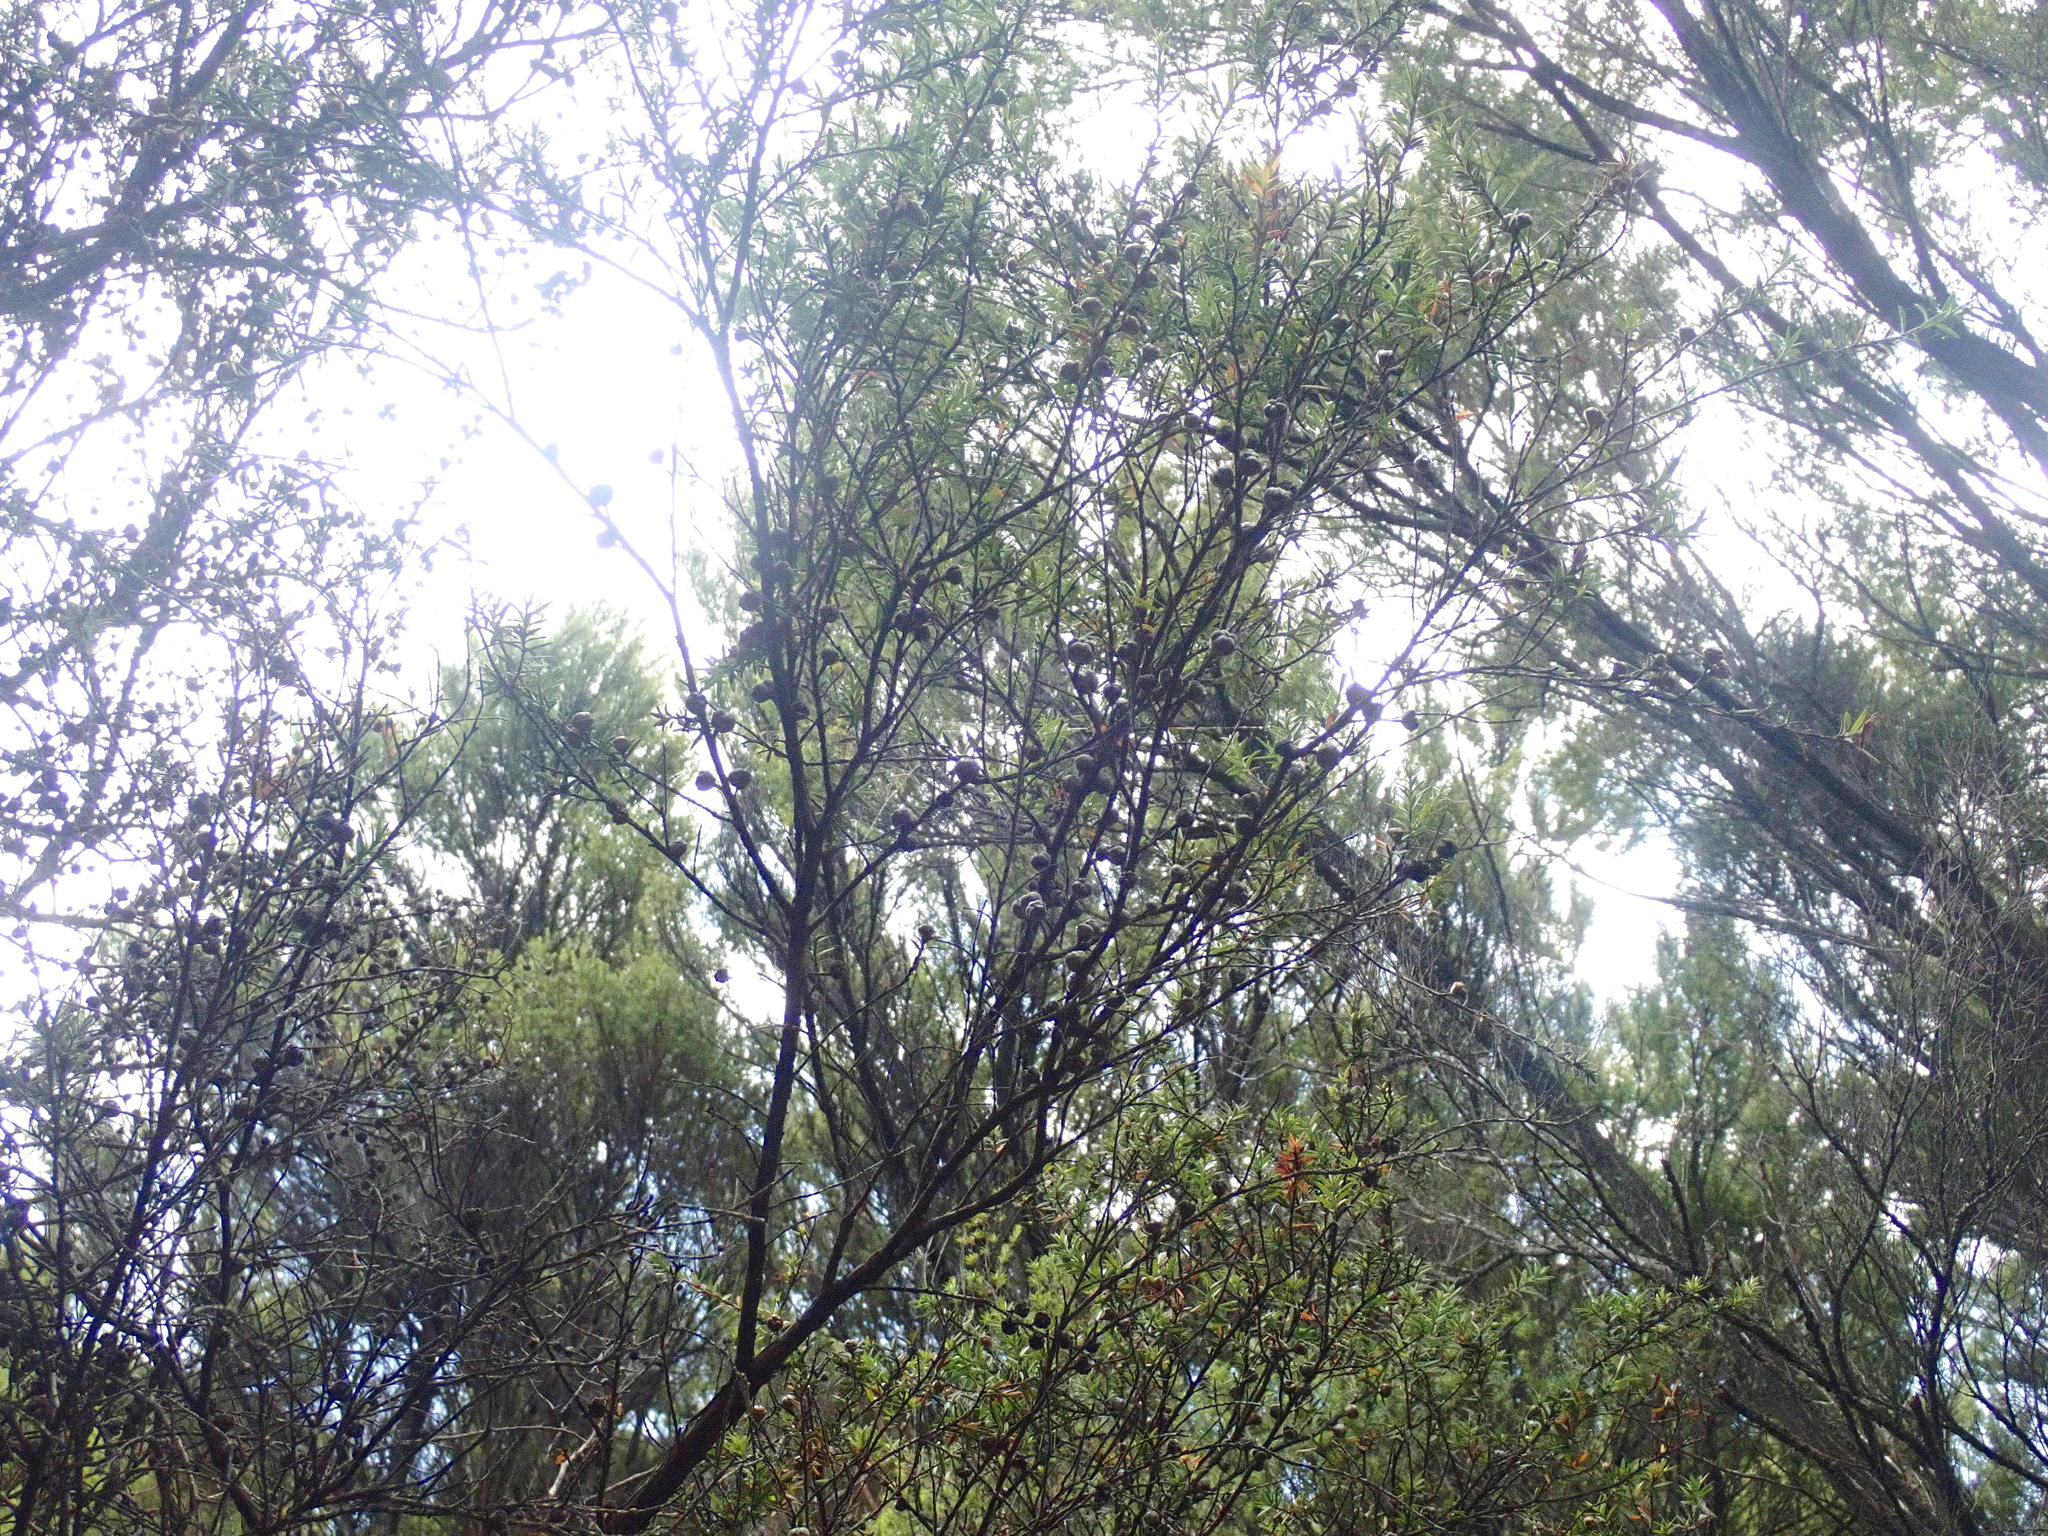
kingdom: Plantae
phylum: Tracheophyta
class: Magnoliopsida
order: Myrtales
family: Myrtaceae
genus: Leptospermum
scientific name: Leptospermum scoparium
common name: Broom tea-tree
